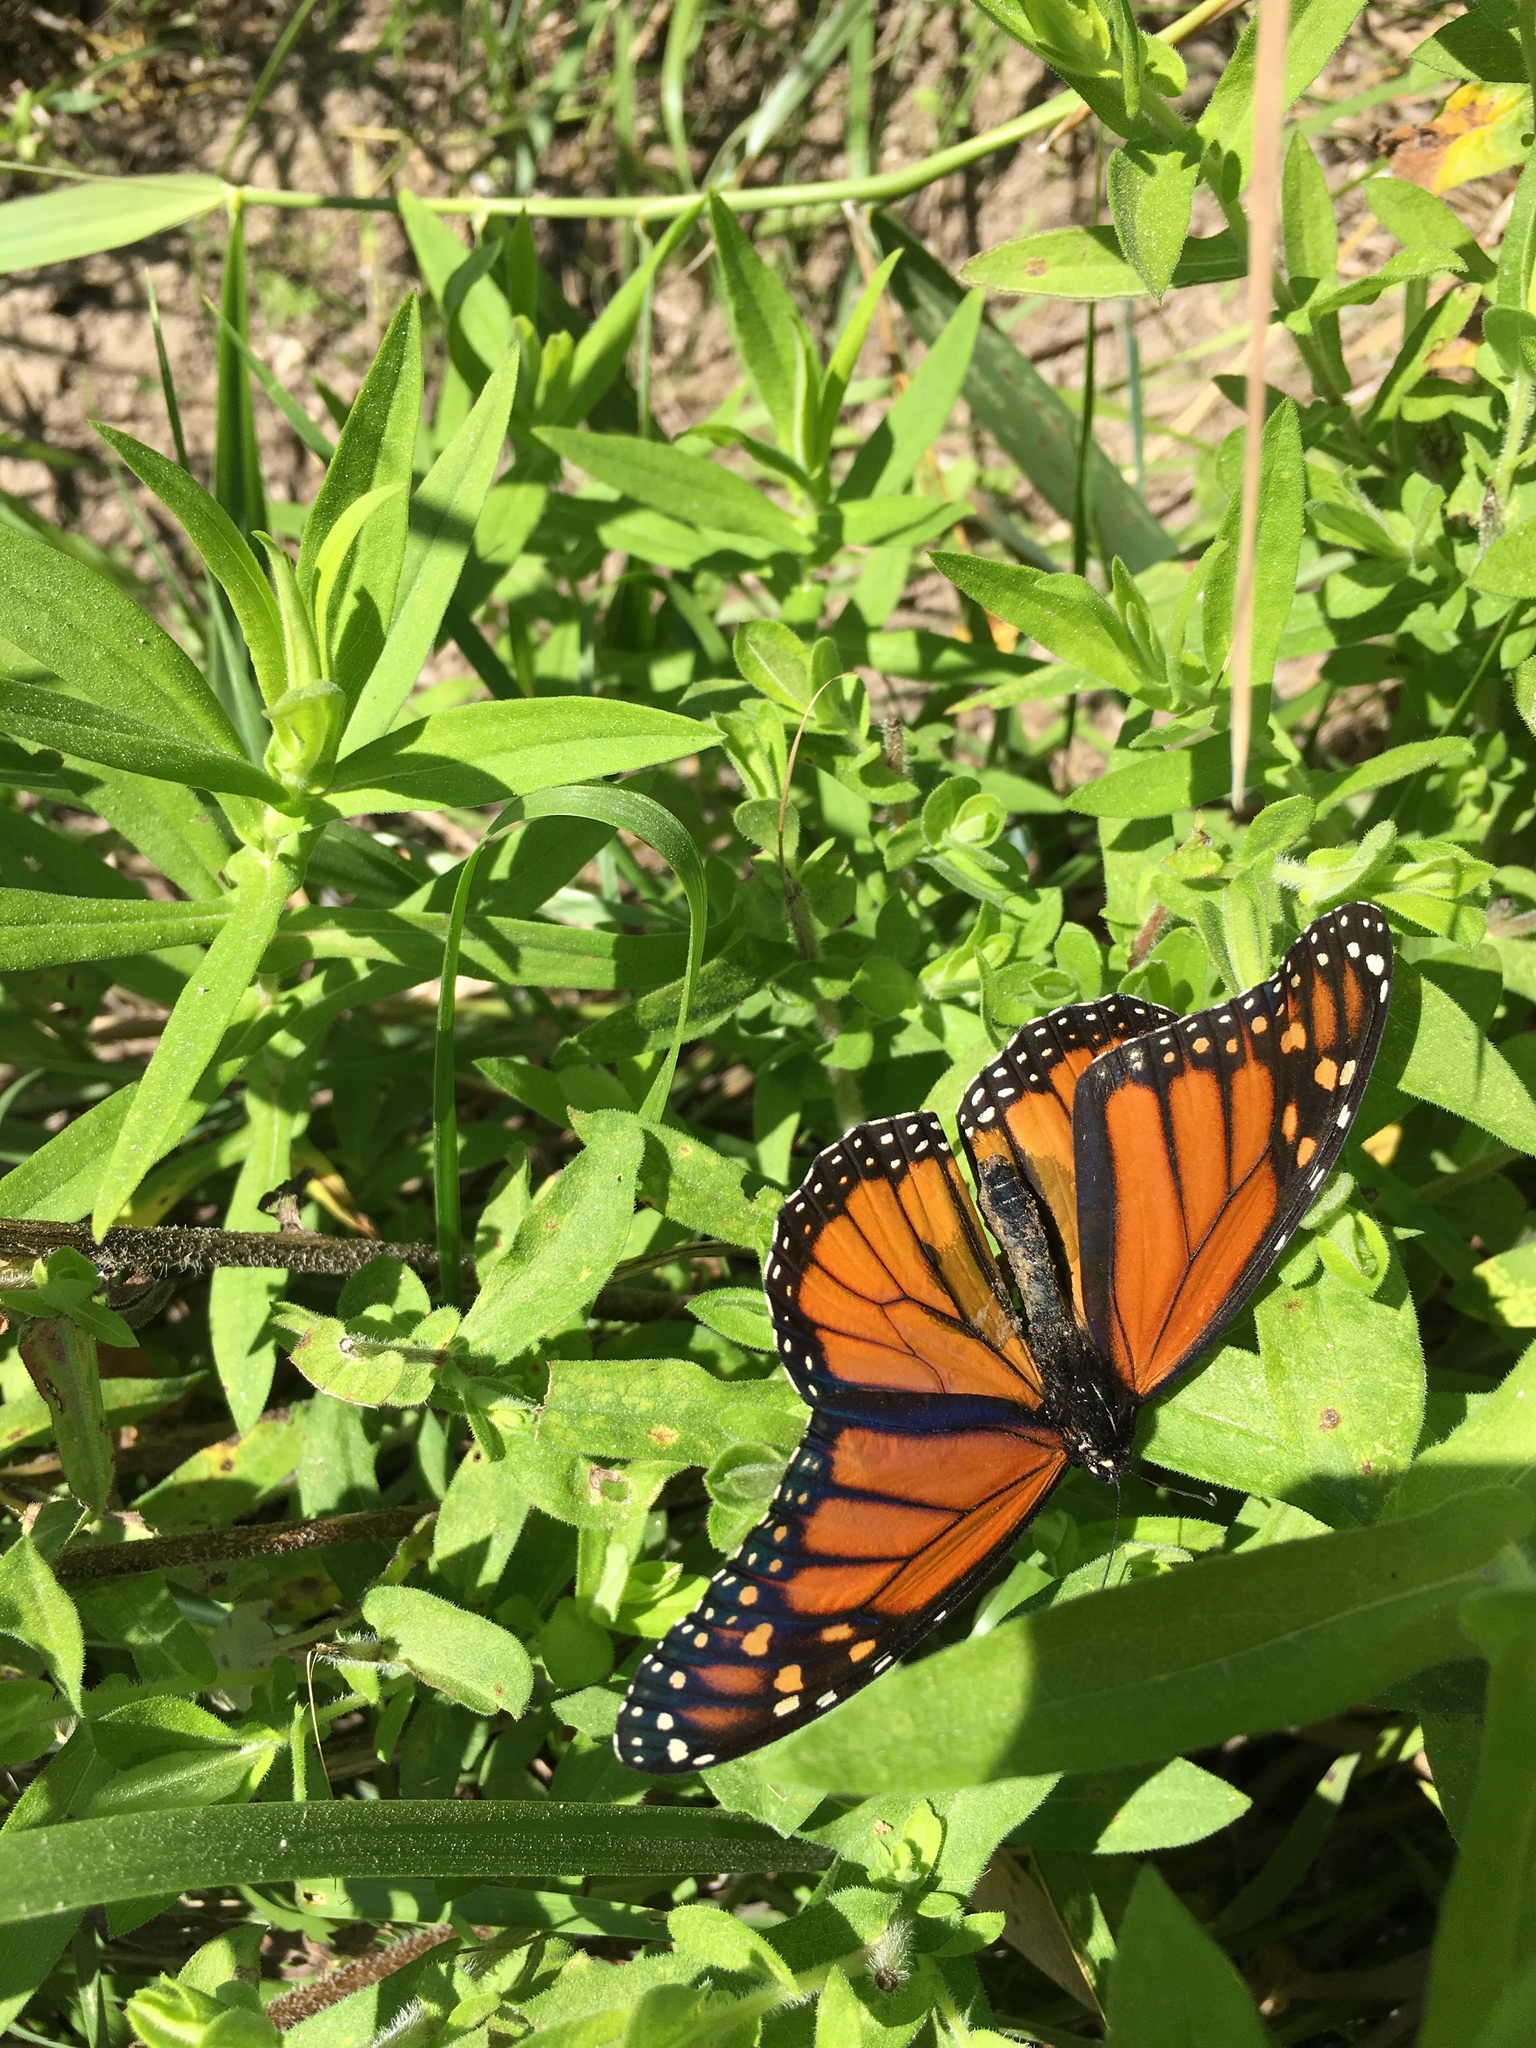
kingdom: Animalia
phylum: Arthropoda
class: Insecta
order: Lepidoptera
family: Nymphalidae
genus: Danaus
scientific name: Danaus plexippus
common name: Monarch
